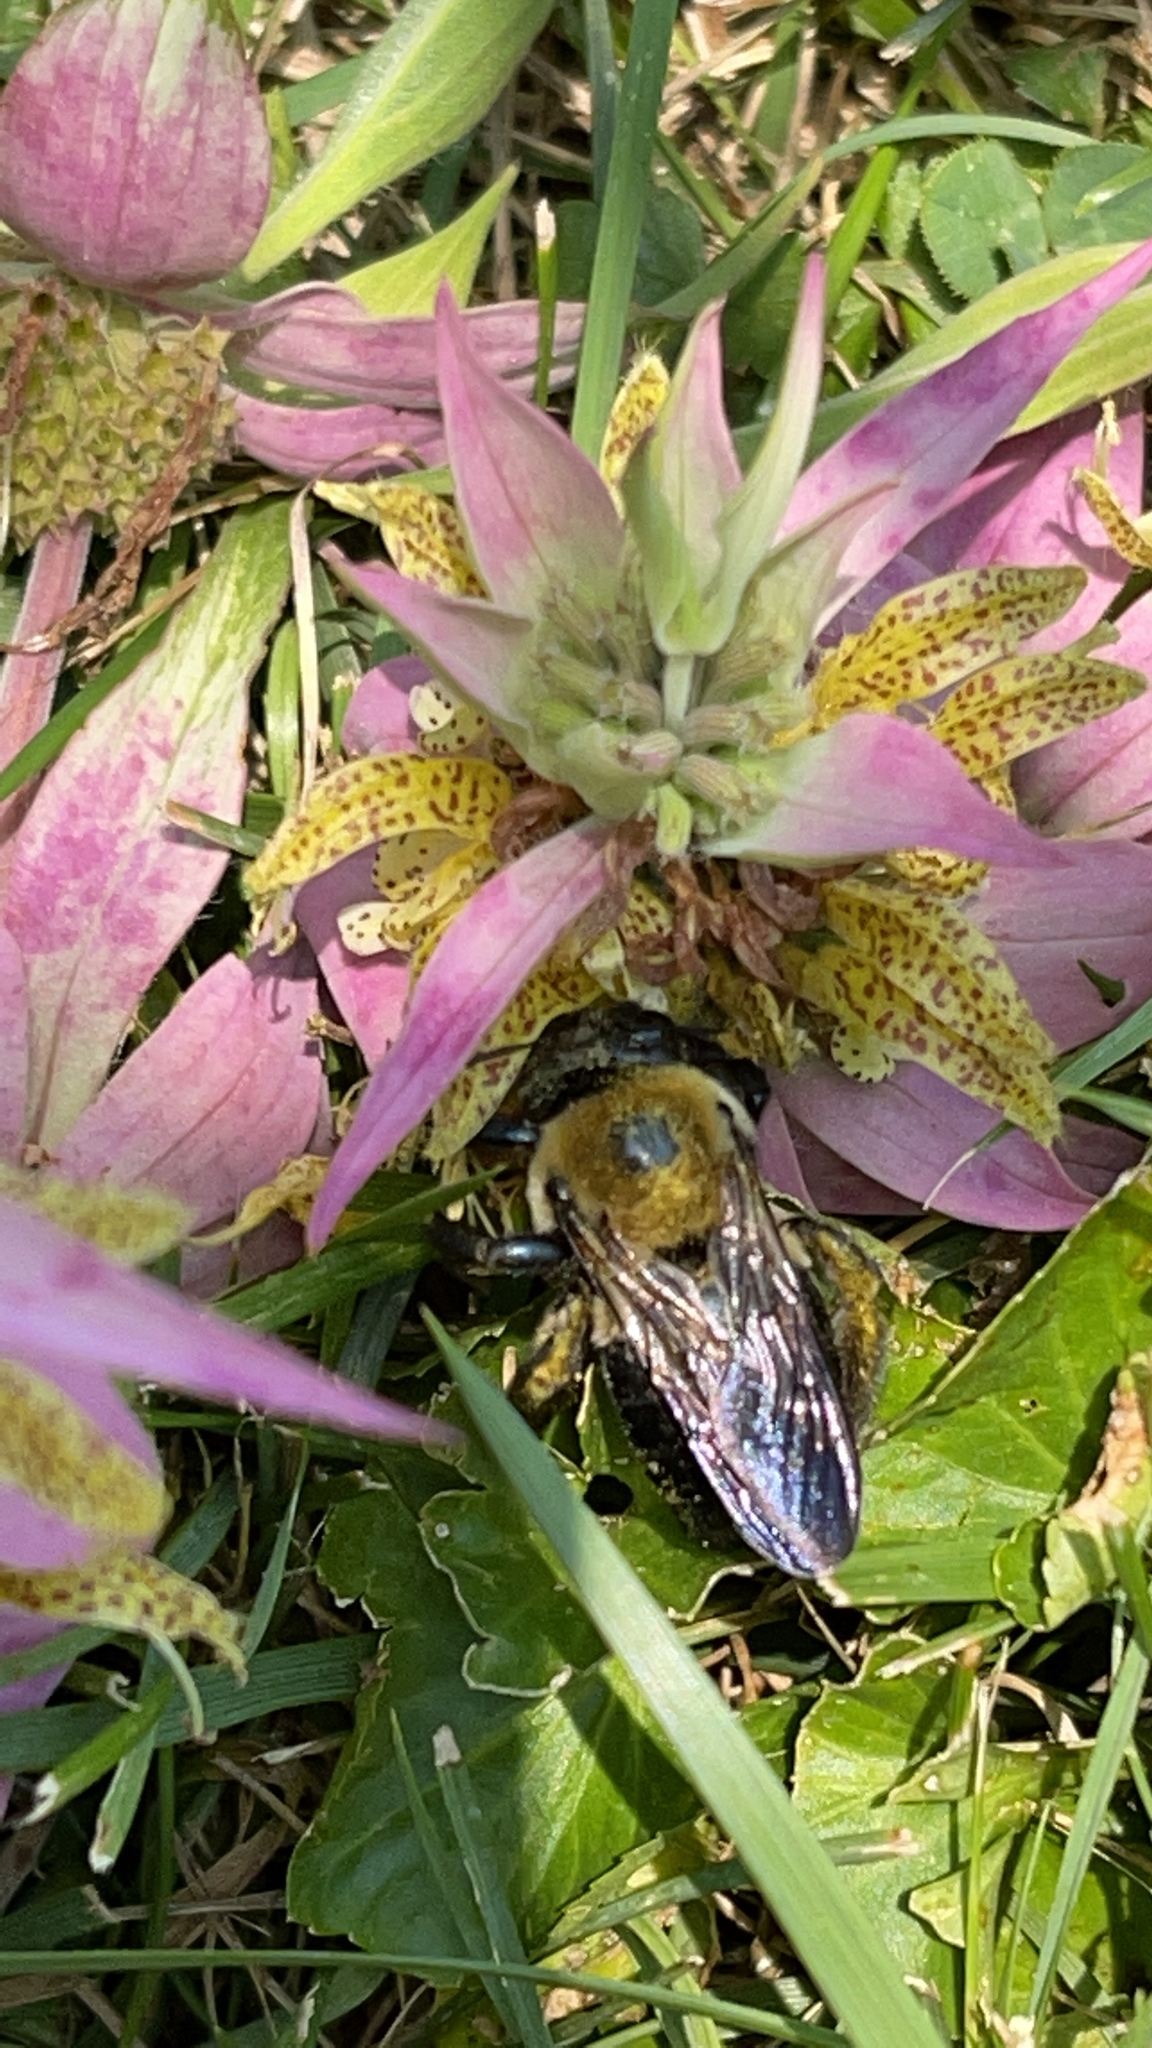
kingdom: Animalia
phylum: Arthropoda
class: Insecta
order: Hymenoptera
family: Apidae
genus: Xylocopa
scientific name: Xylocopa virginica
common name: Carpenter bee
